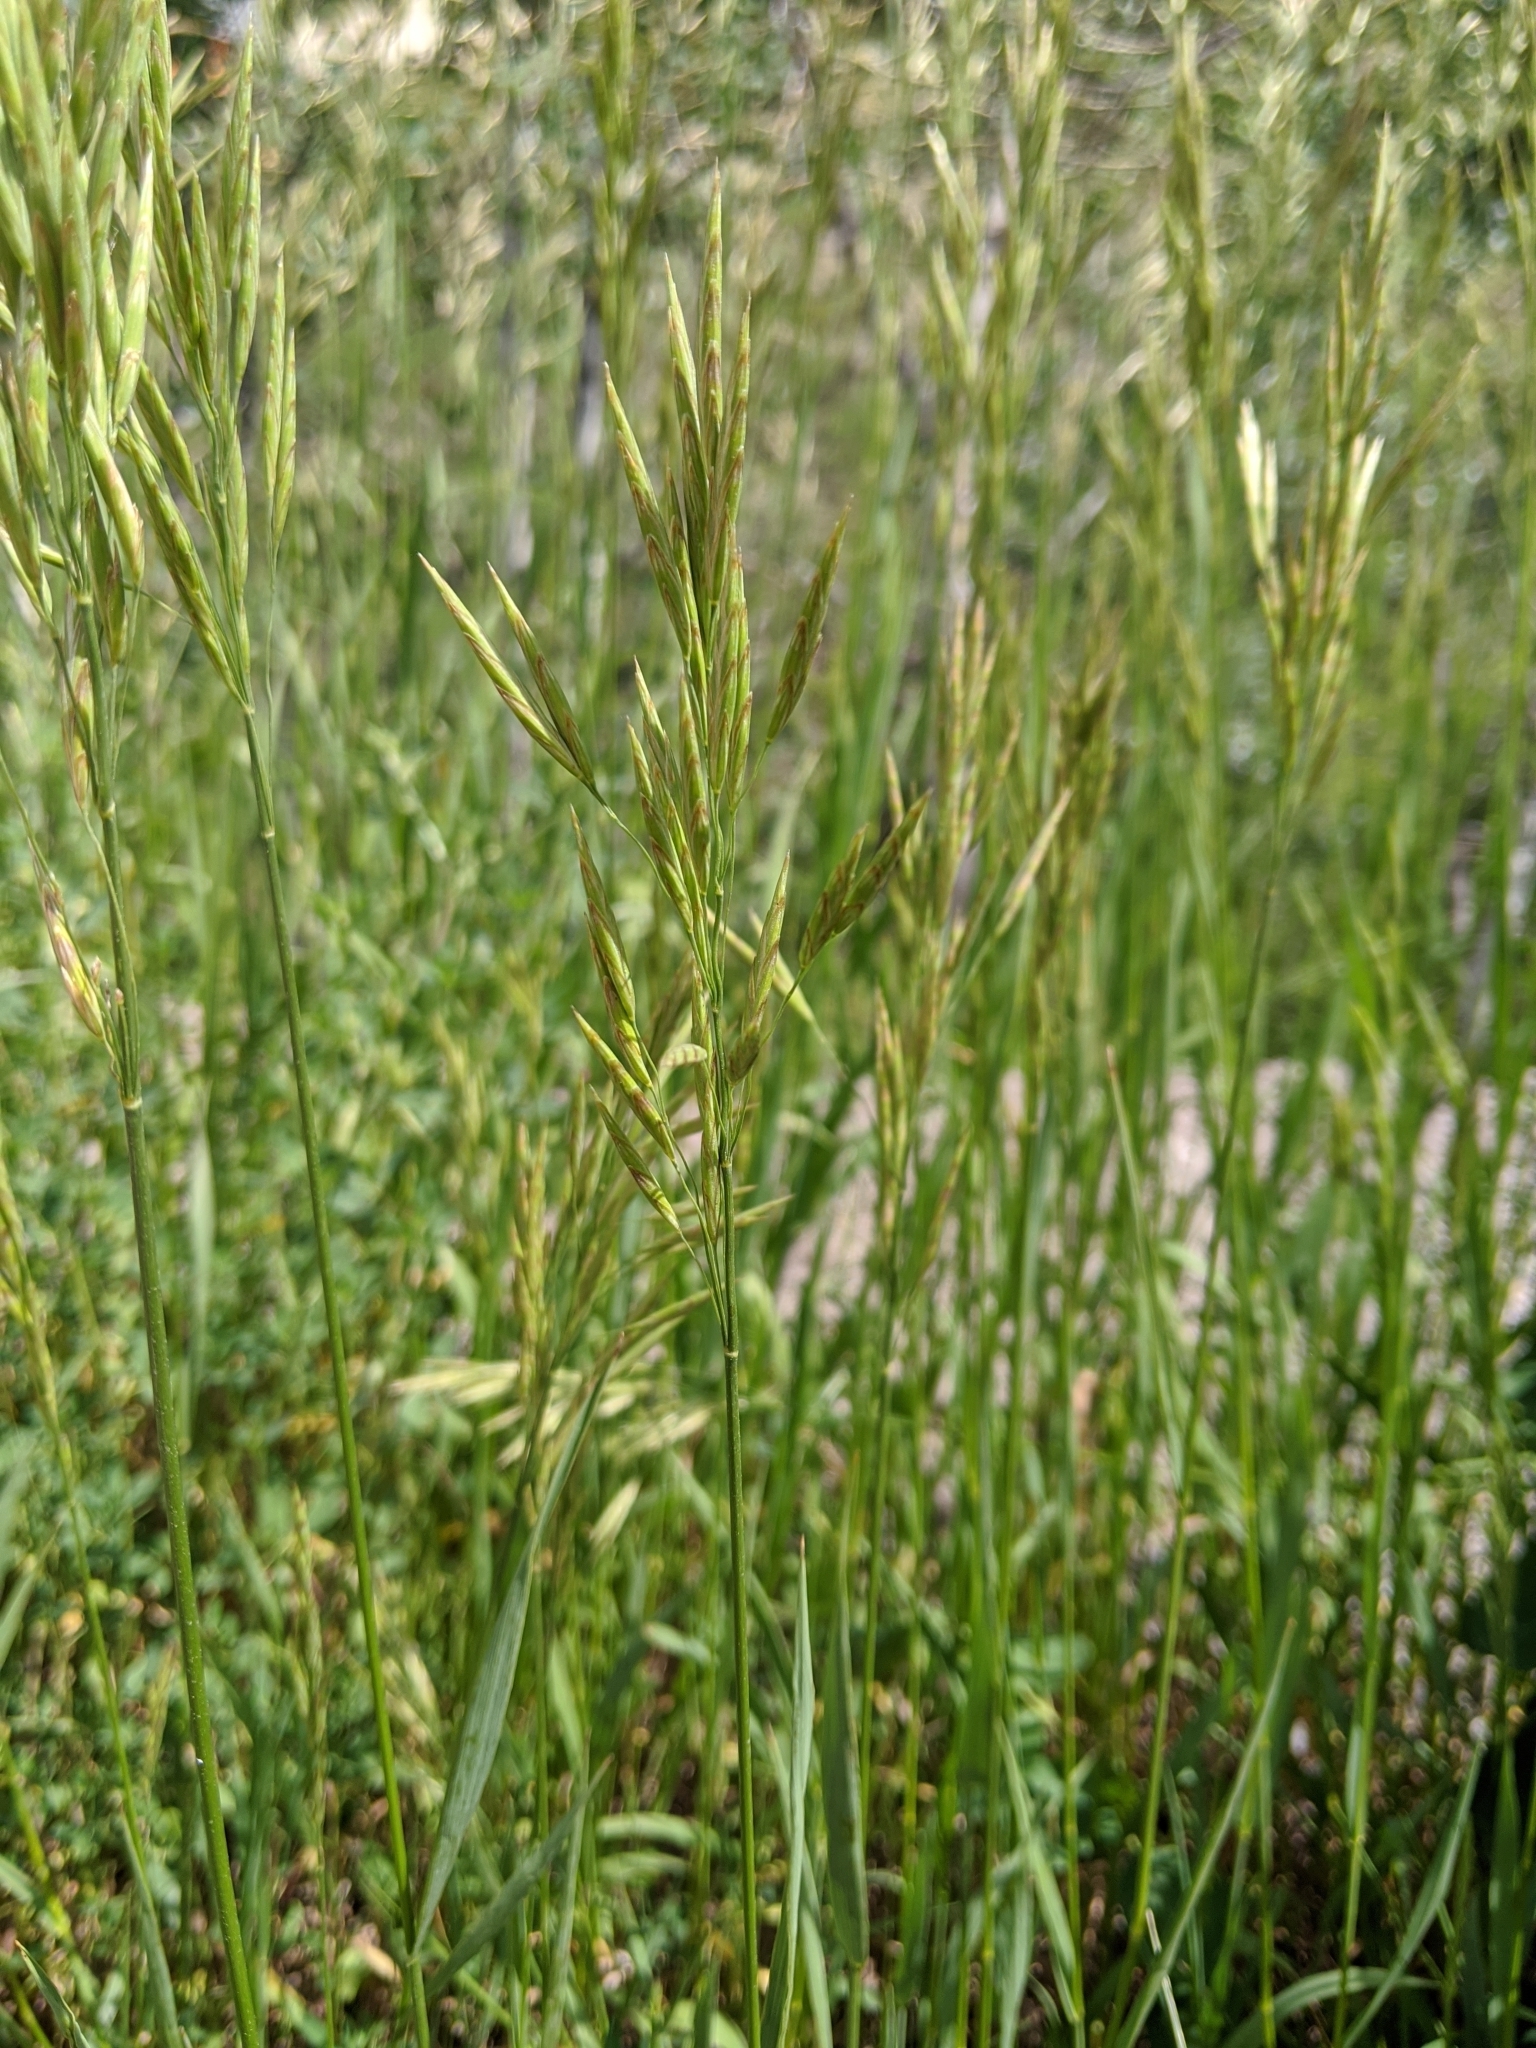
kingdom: Plantae
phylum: Tracheophyta
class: Liliopsida
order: Poales
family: Poaceae
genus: Bromus
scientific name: Bromus inermis
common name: Smooth brome
